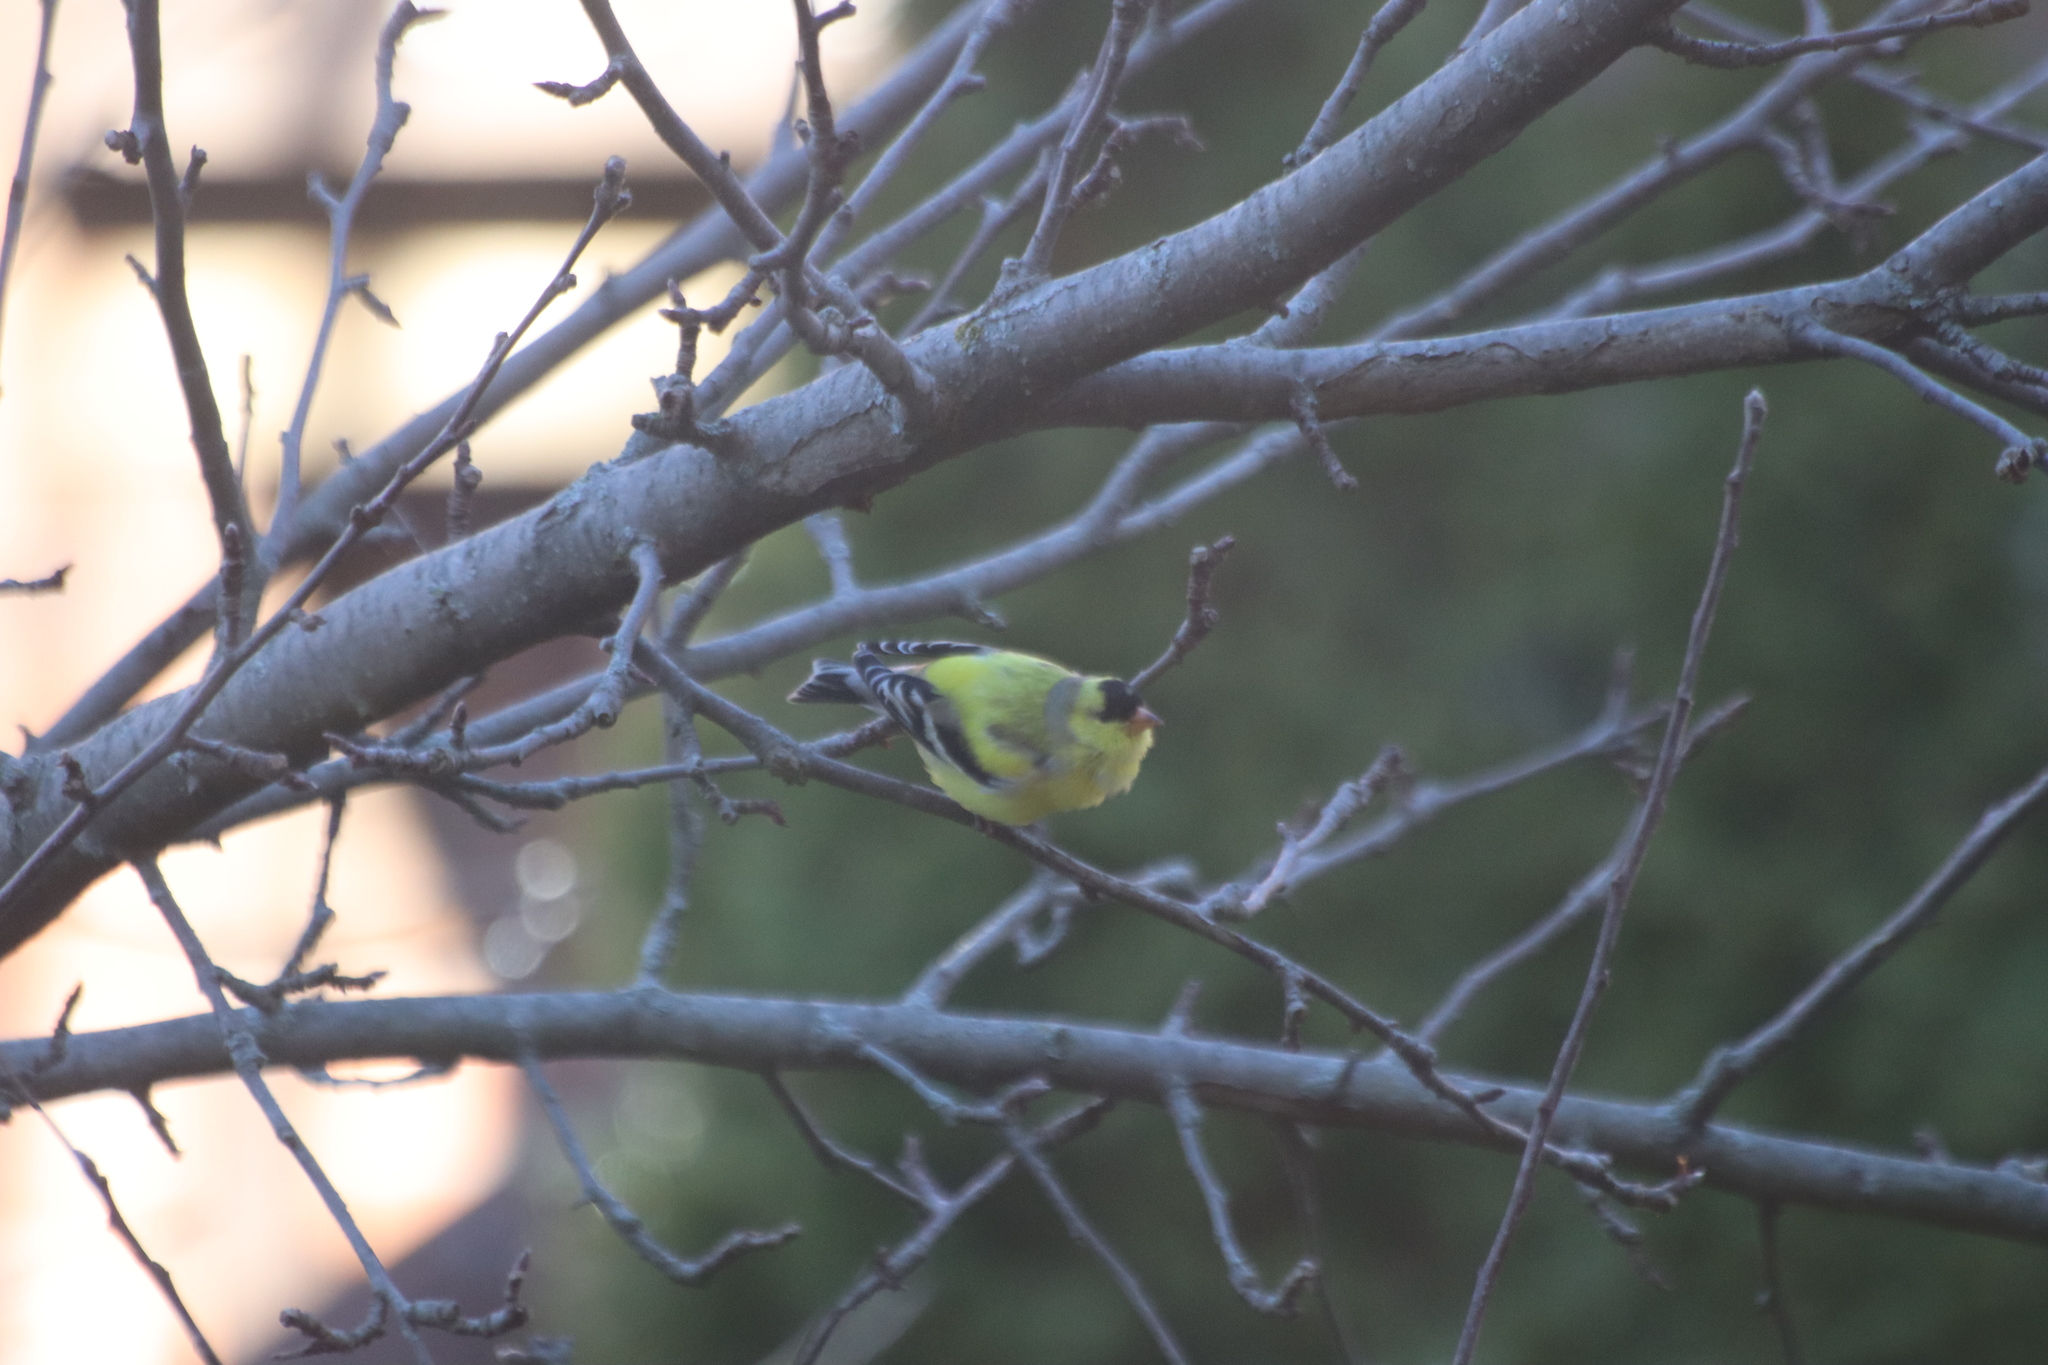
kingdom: Animalia
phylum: Chordata
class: Aves
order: Passeriformes
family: Fringillidae
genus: Spinus
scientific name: Spinus tristis
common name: American goldfinch
